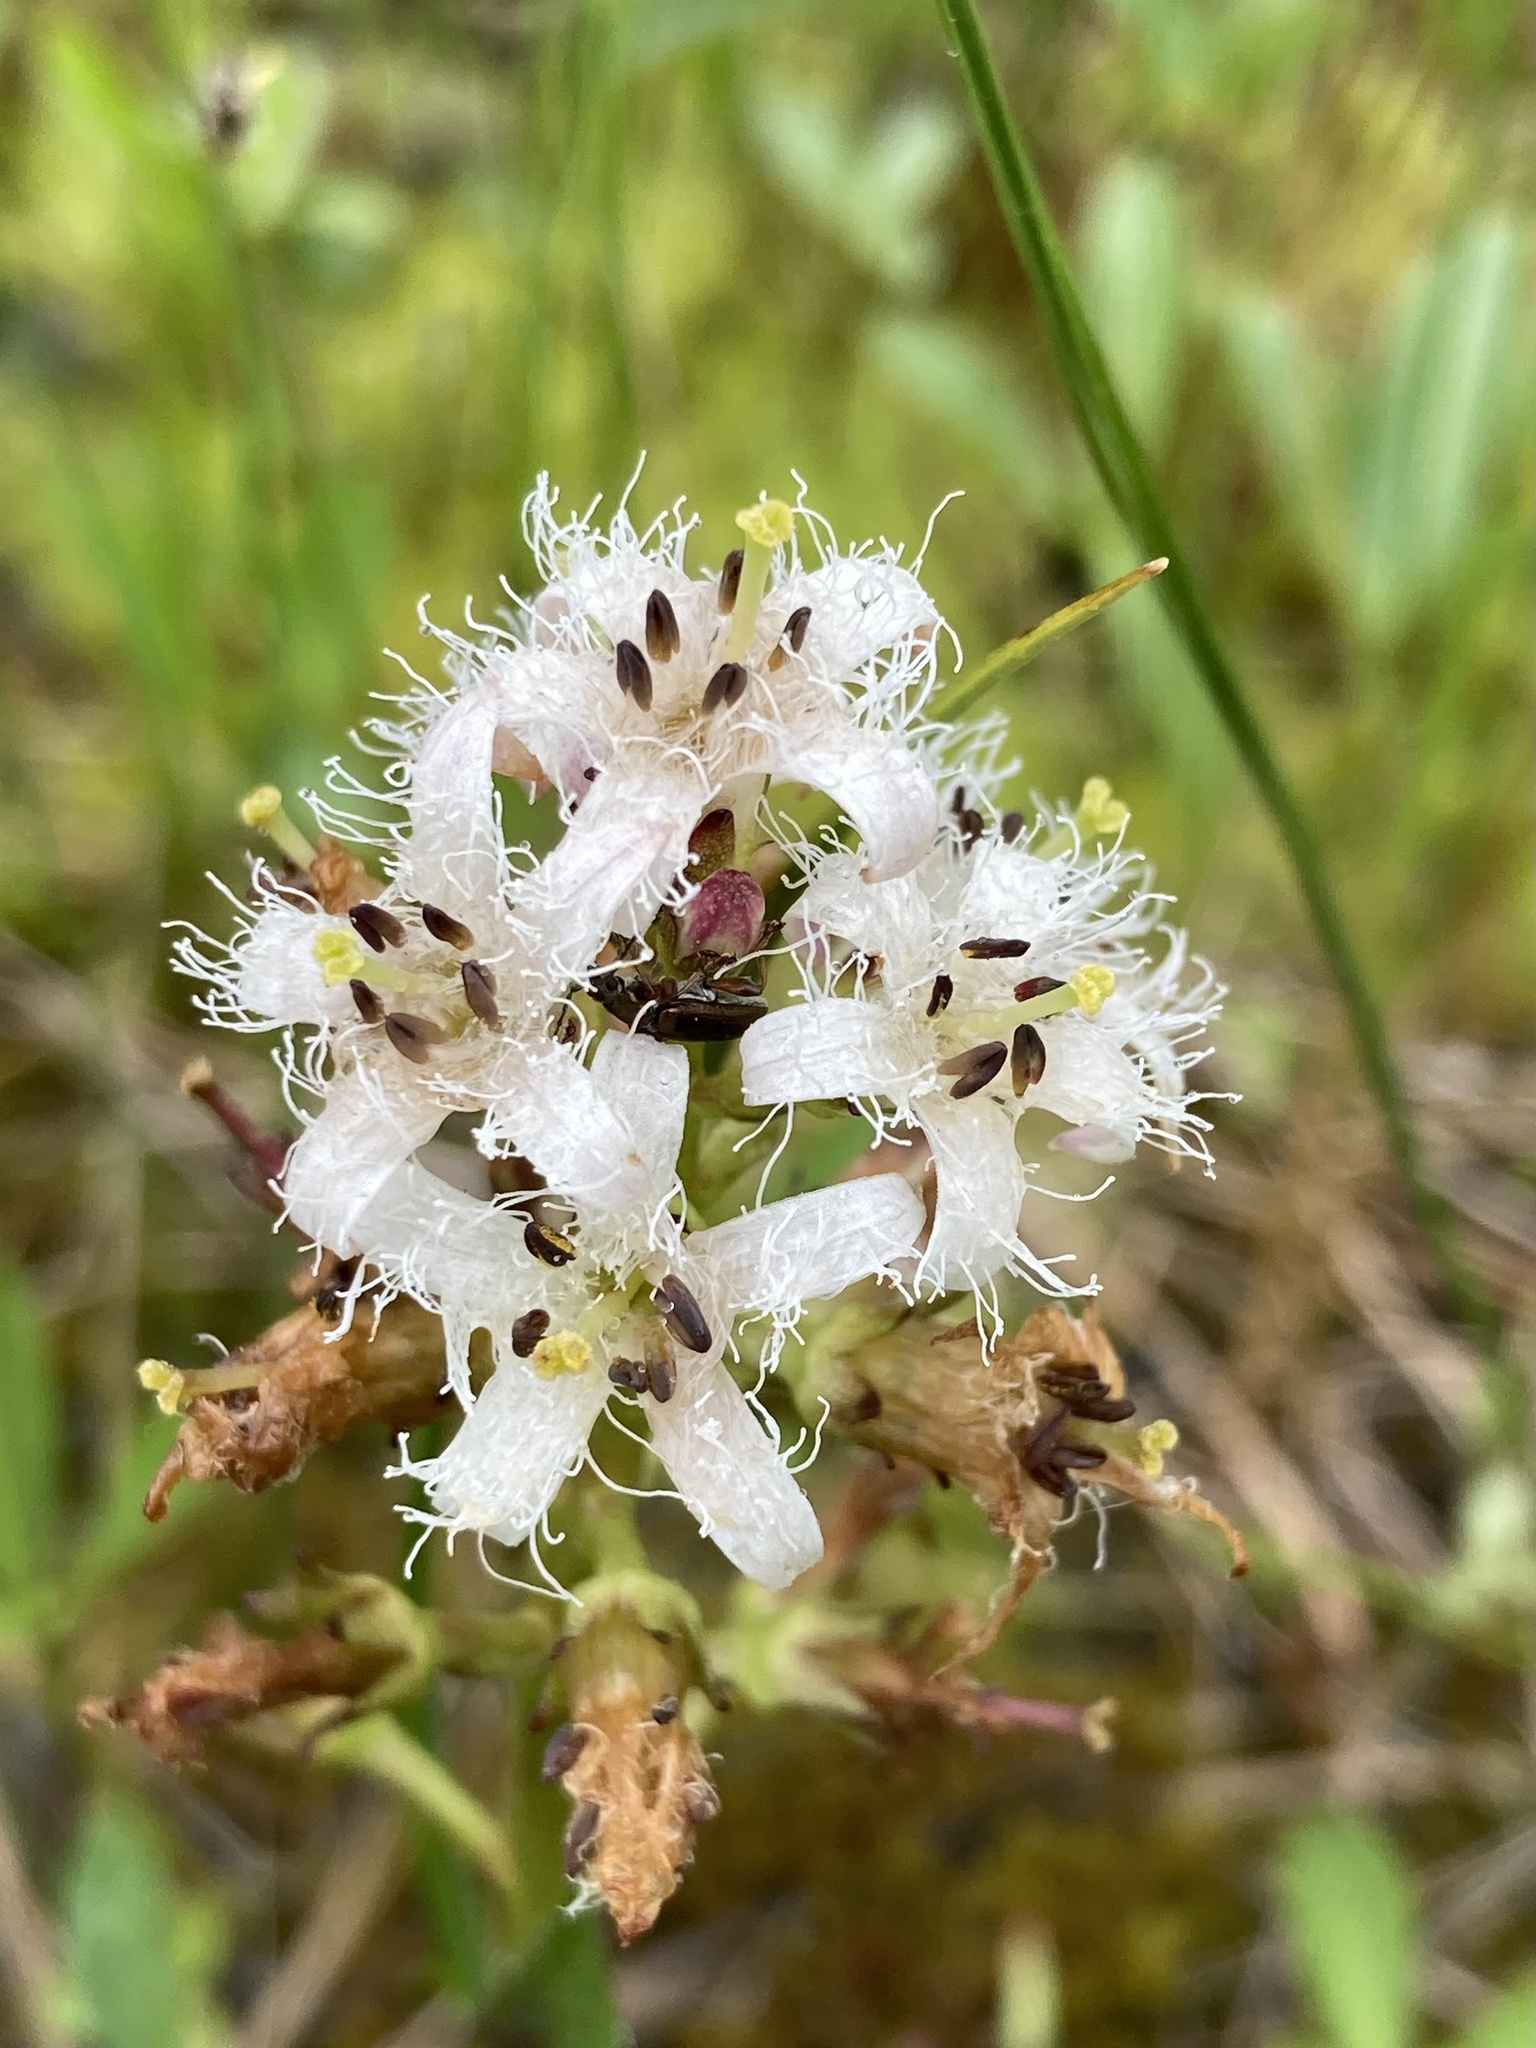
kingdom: Plantae
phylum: Tracheophyta
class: Magnoliopsida
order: Asterales
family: Menyanthaceae
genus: Menyanthes
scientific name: Menyanthes trifoliata
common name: Bogbean
